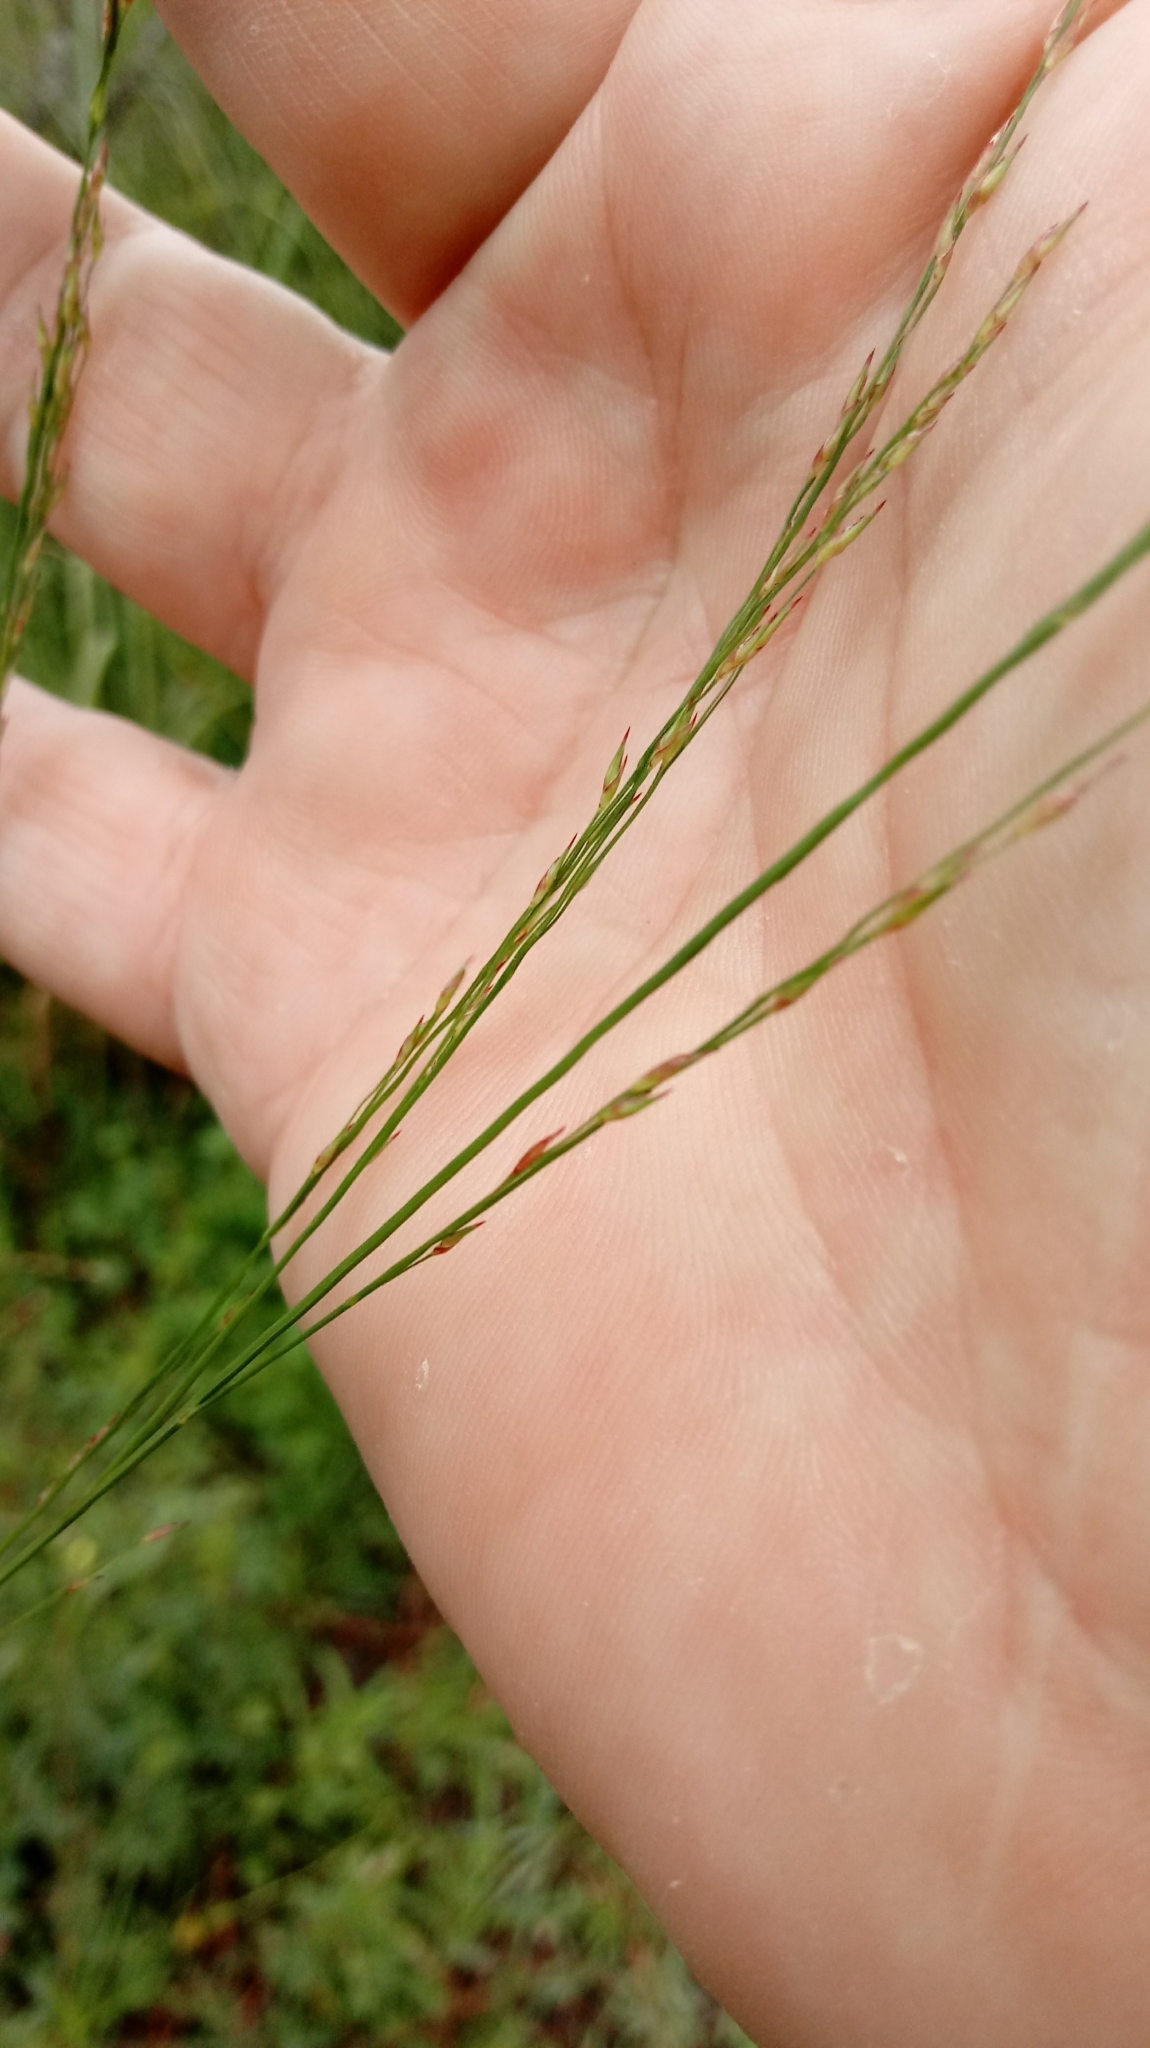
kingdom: Plantae
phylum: Tracheophyta
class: Liliopsida
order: Poales
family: Poaceae
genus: Panicum
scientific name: Panicum virgatum
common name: Switchgrass
